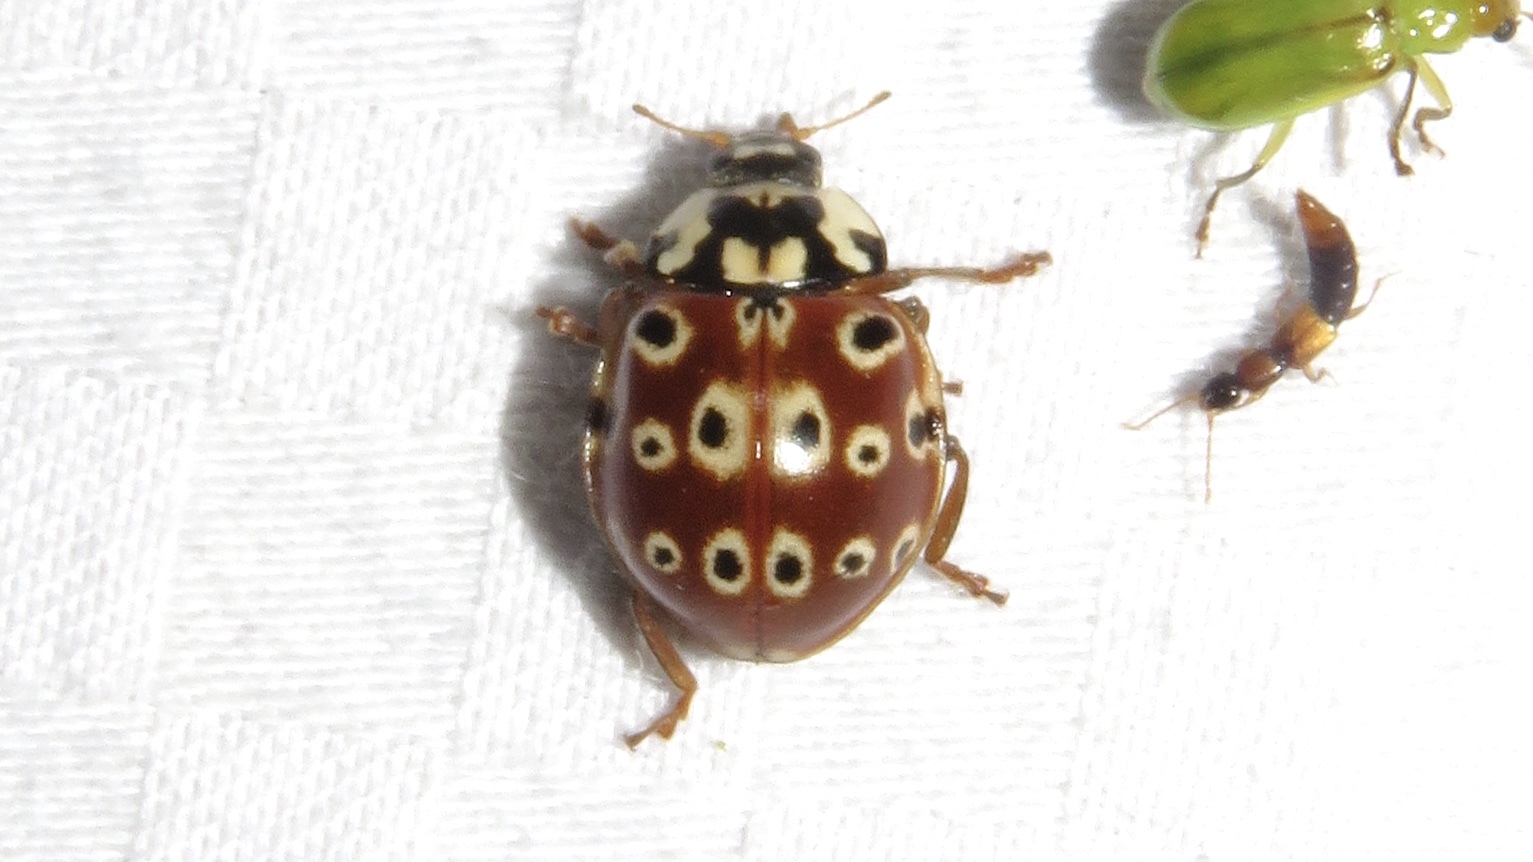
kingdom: Animalia
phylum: Arthropoda
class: Insecta
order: Coleoptera
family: Coccinellidae
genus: Anatis
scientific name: Anatis mali
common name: Eye-spotted lady beetle
